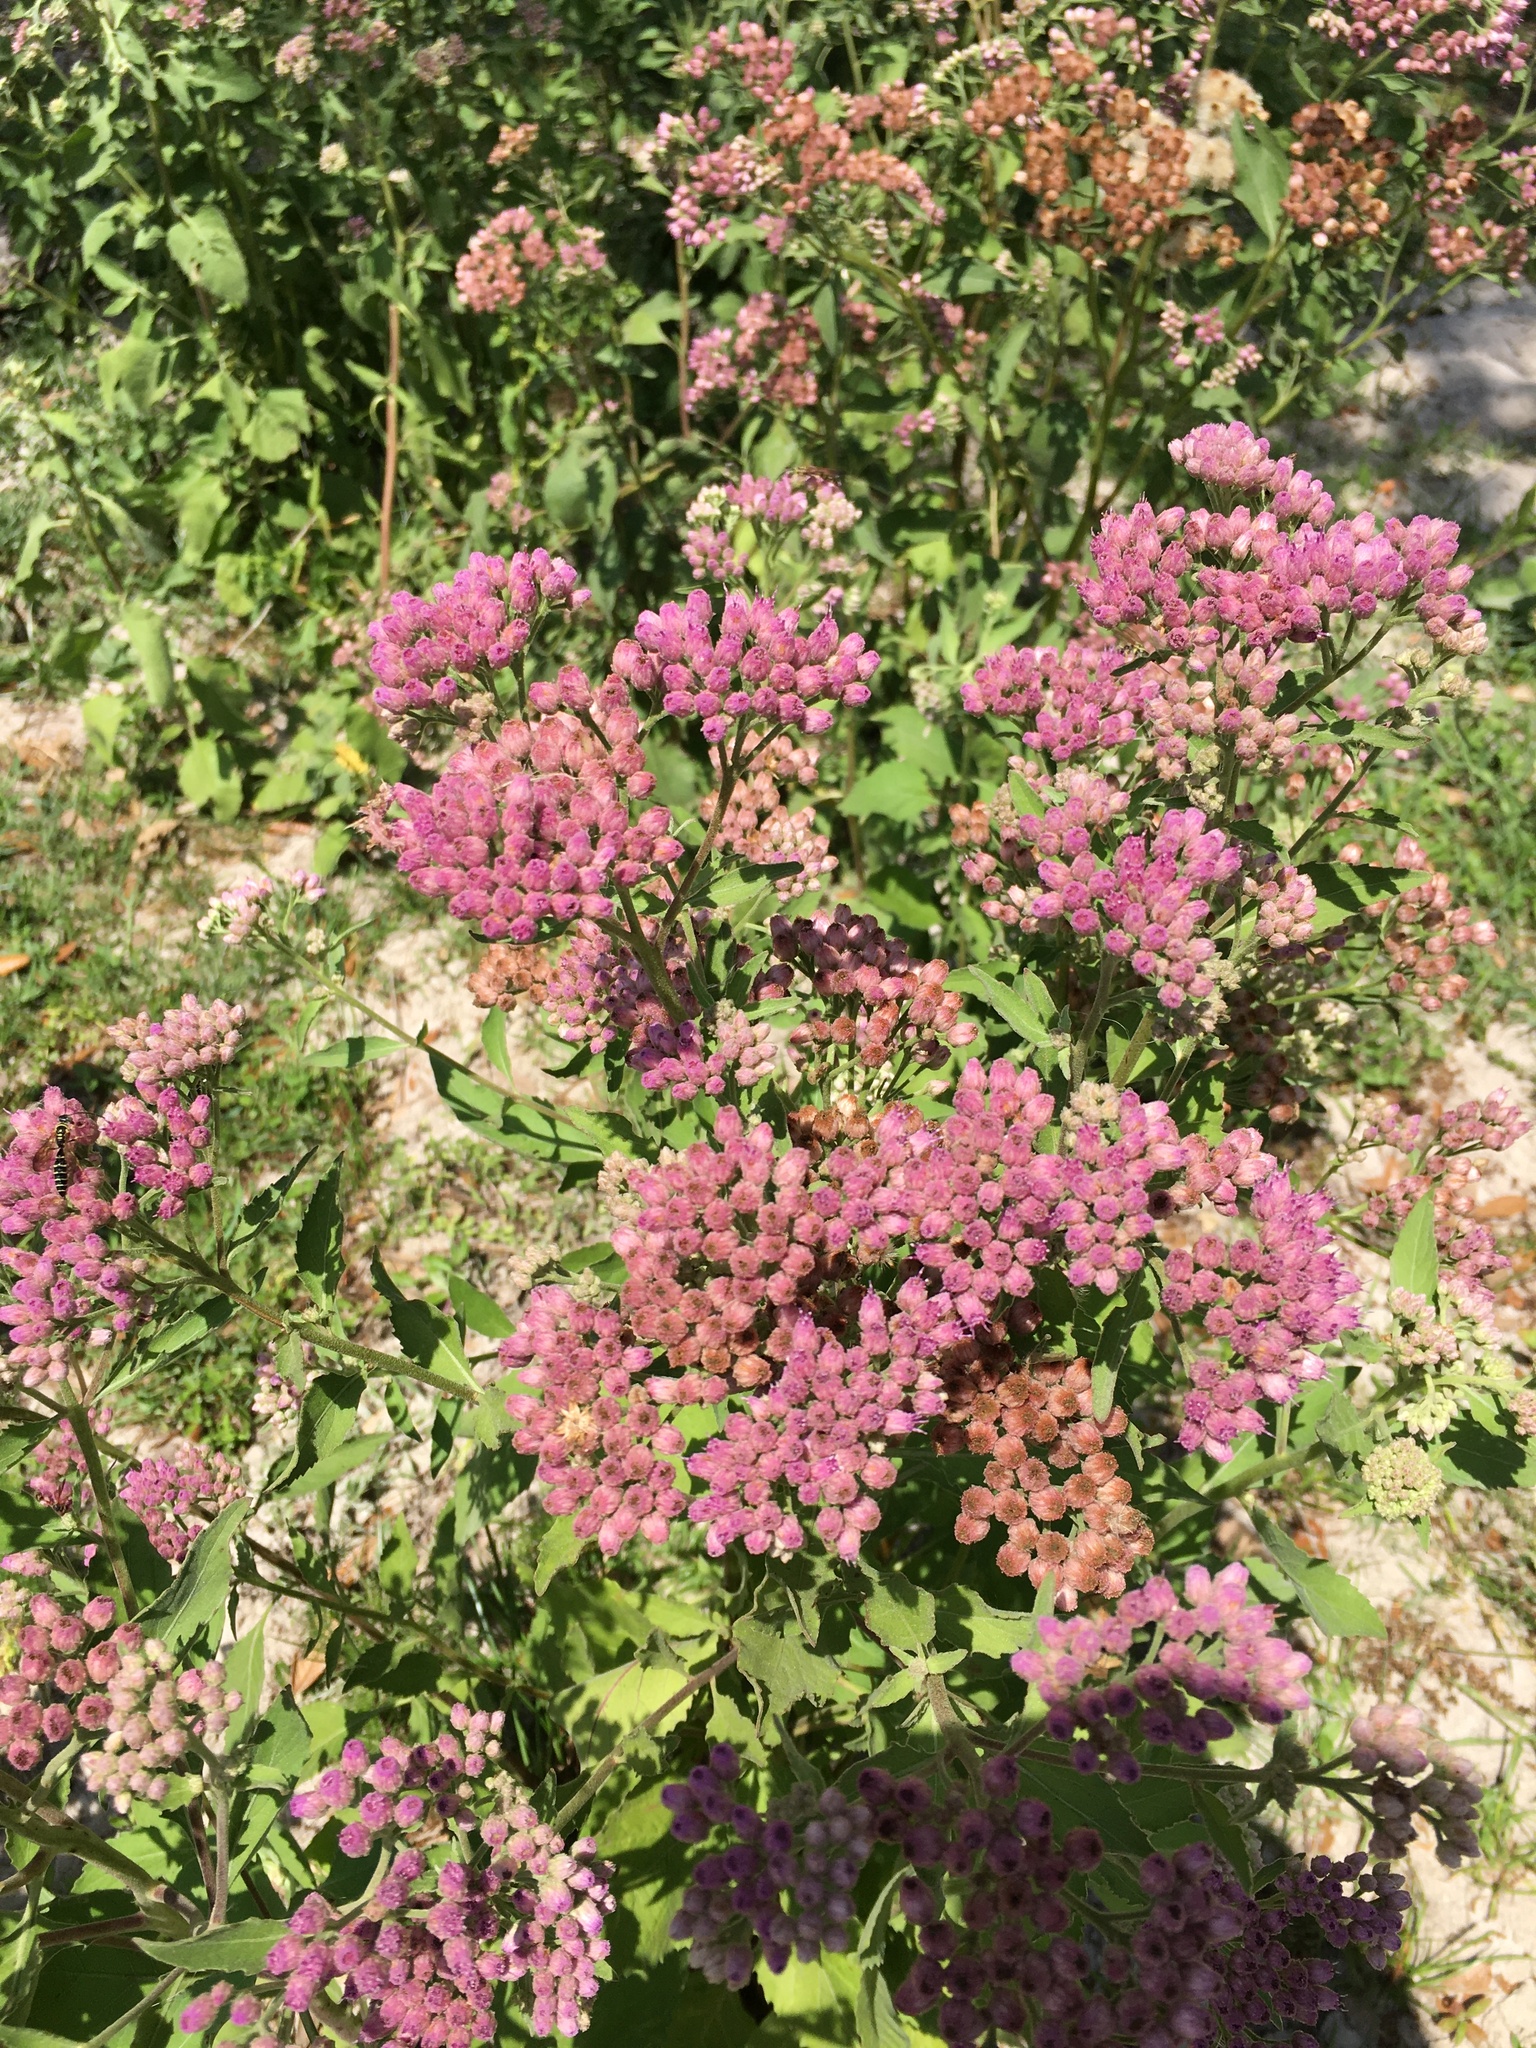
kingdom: Plantae
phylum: Tracheophyta
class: Magnoliopsida
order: Asterales
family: Asteraceae
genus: Pluchea
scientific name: Pluchea odorata
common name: Saltmarsh fleabane
